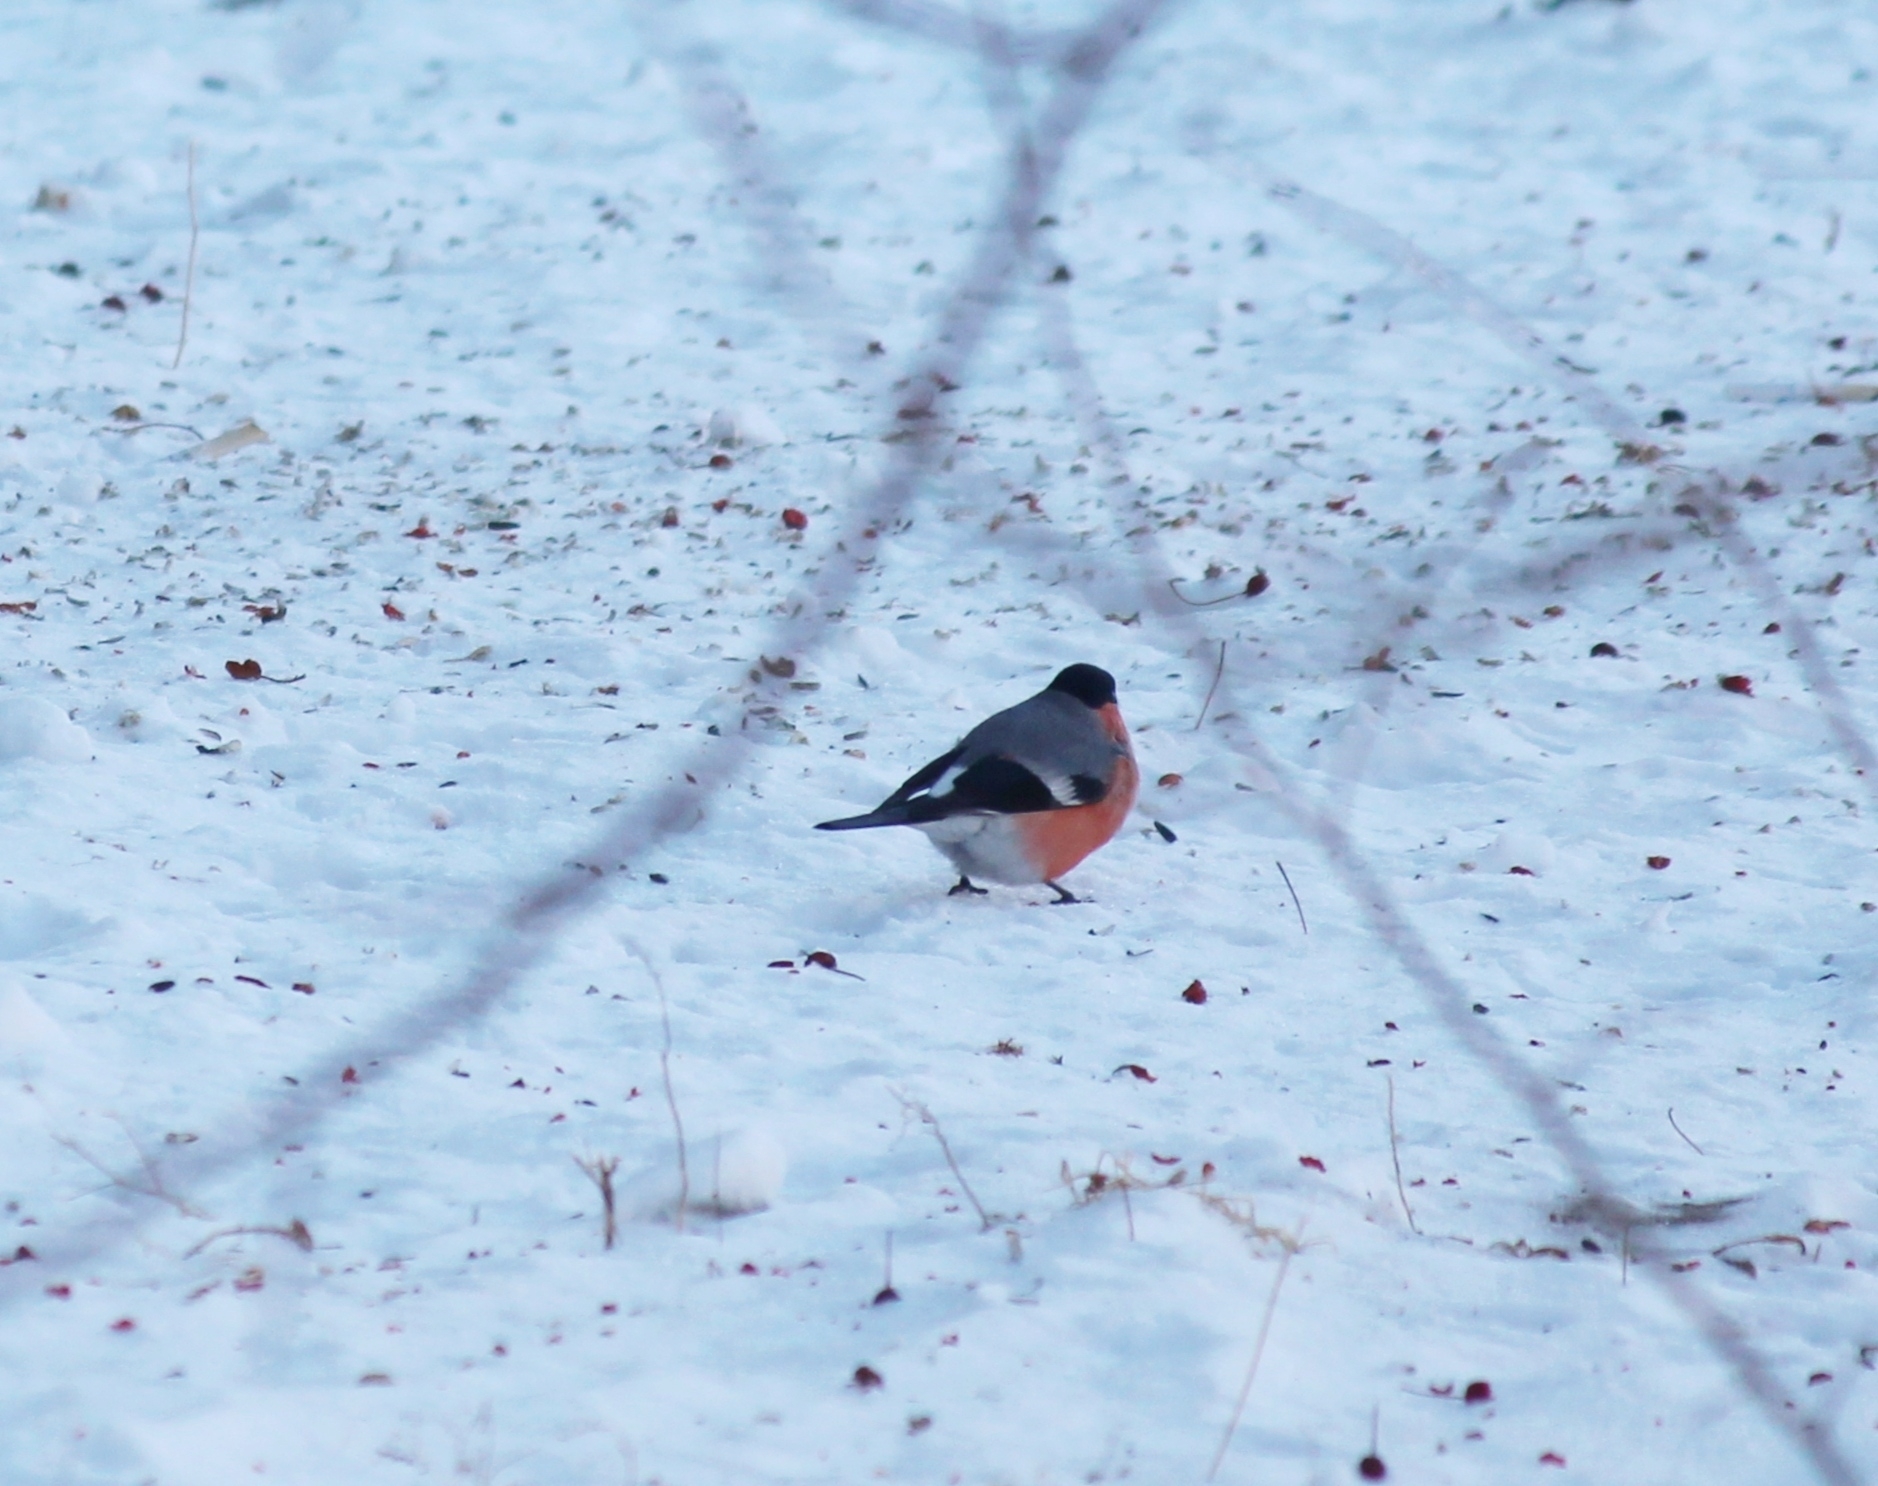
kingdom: Animalia
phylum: Chordata
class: Aves
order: Passeriformes
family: Fringillidae
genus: Pyrrhula
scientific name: Pyrrhula pyrrhula
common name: Eurasian bullfinch
